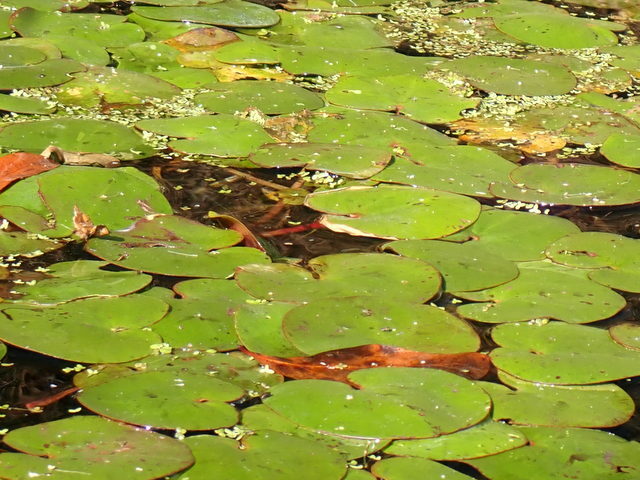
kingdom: Plantae
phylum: Tracheophyta
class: Magnoliopsida
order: Nymphaeales
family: Cabombaceae
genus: Brasenia
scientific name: Brasenia schreberi
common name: Water-shield
